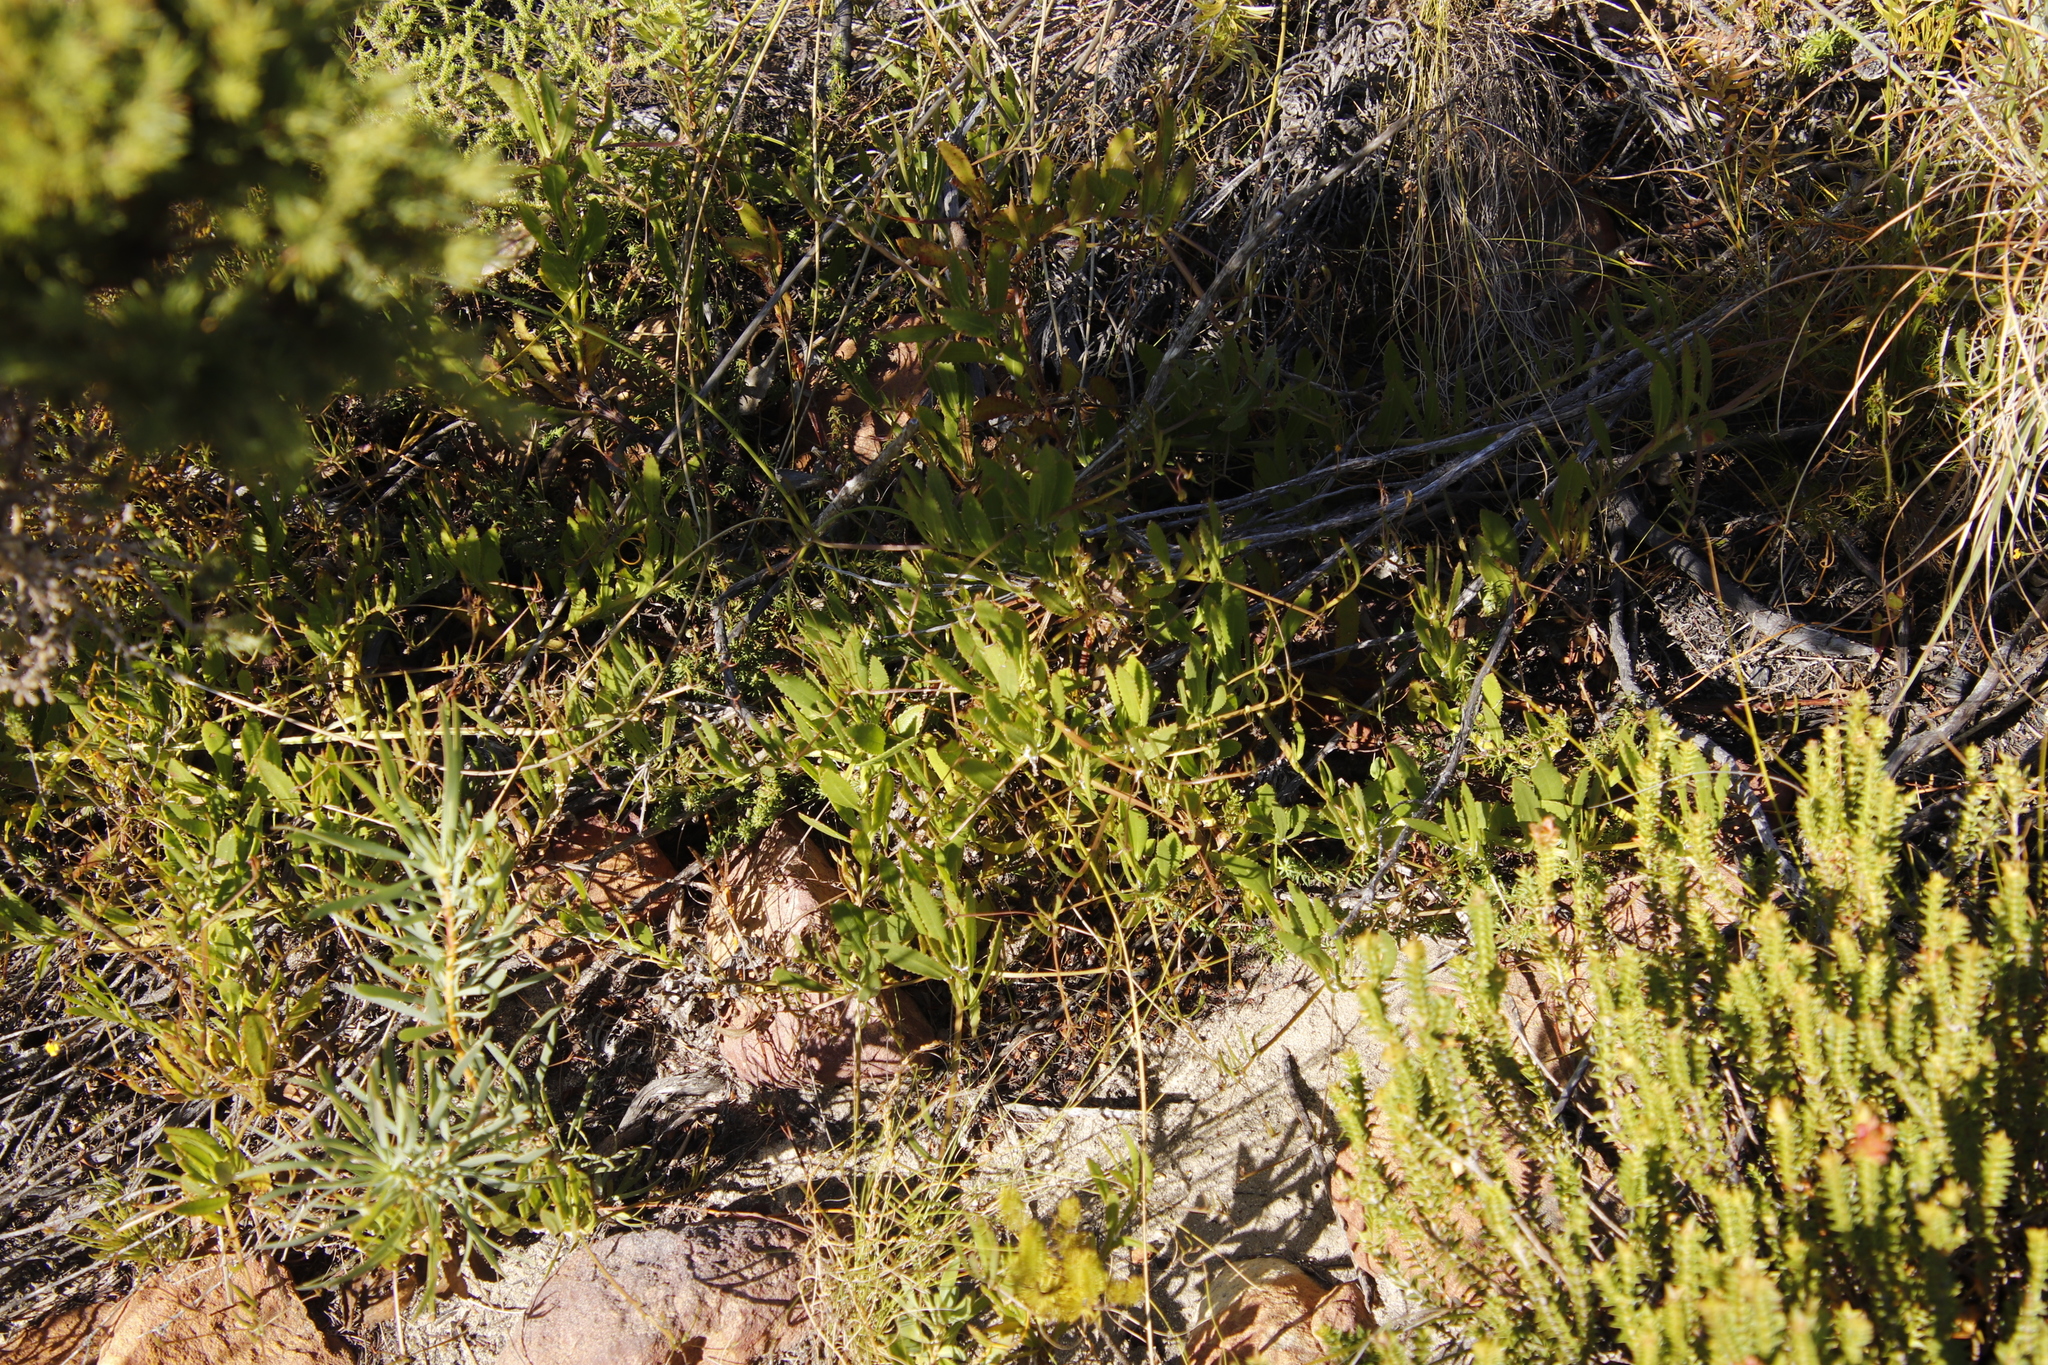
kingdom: Plantae
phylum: Tracheophyta
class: Magnoliopsida
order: Asterales
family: Asteraceae
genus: Osteospermum
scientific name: Osteospermum ciliatum
